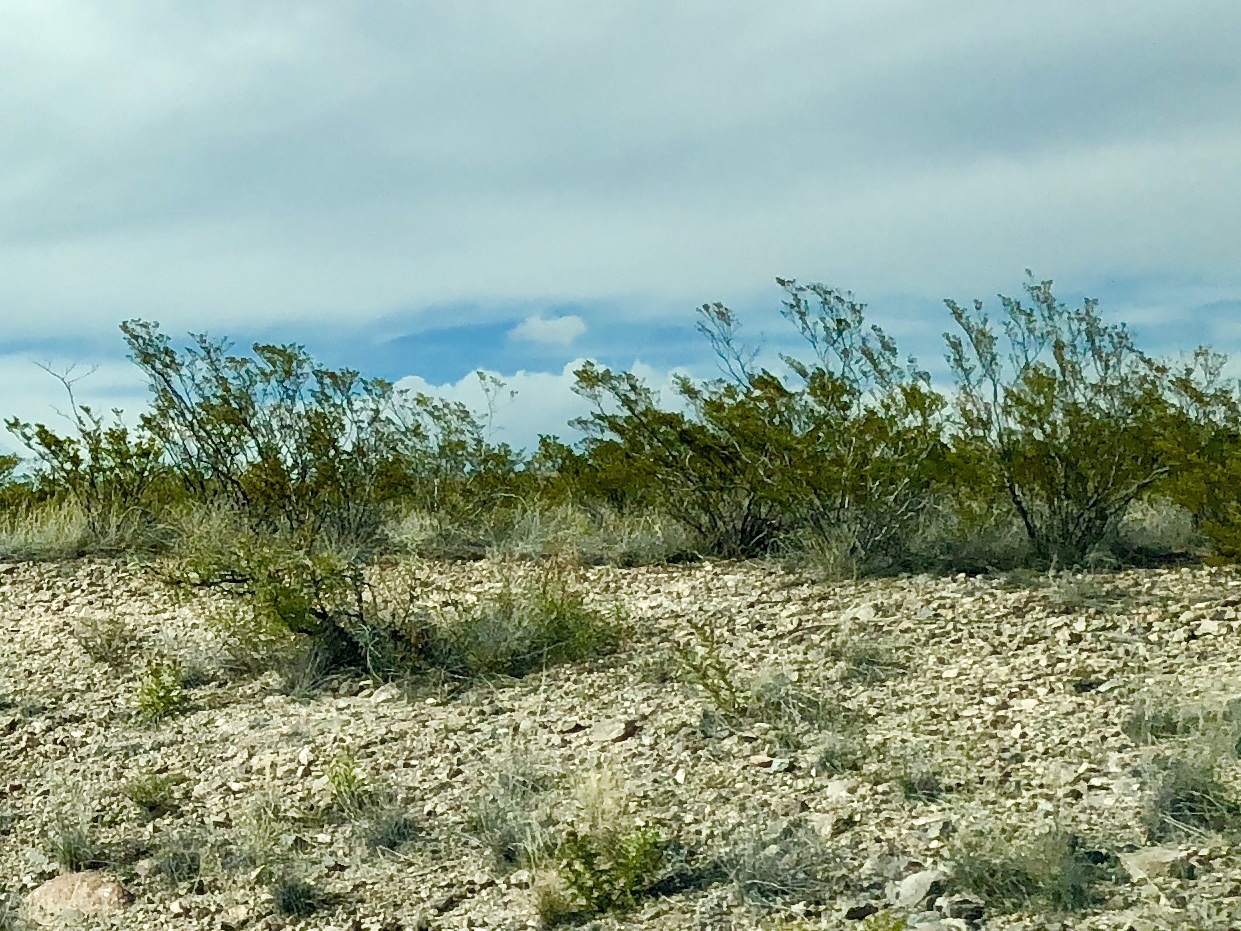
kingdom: Plantae
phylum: Tracheophyta
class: Magnoliopsida
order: Zygophyllales
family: Zygophyllaceae
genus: Larrea
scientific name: Larrea tridentata
